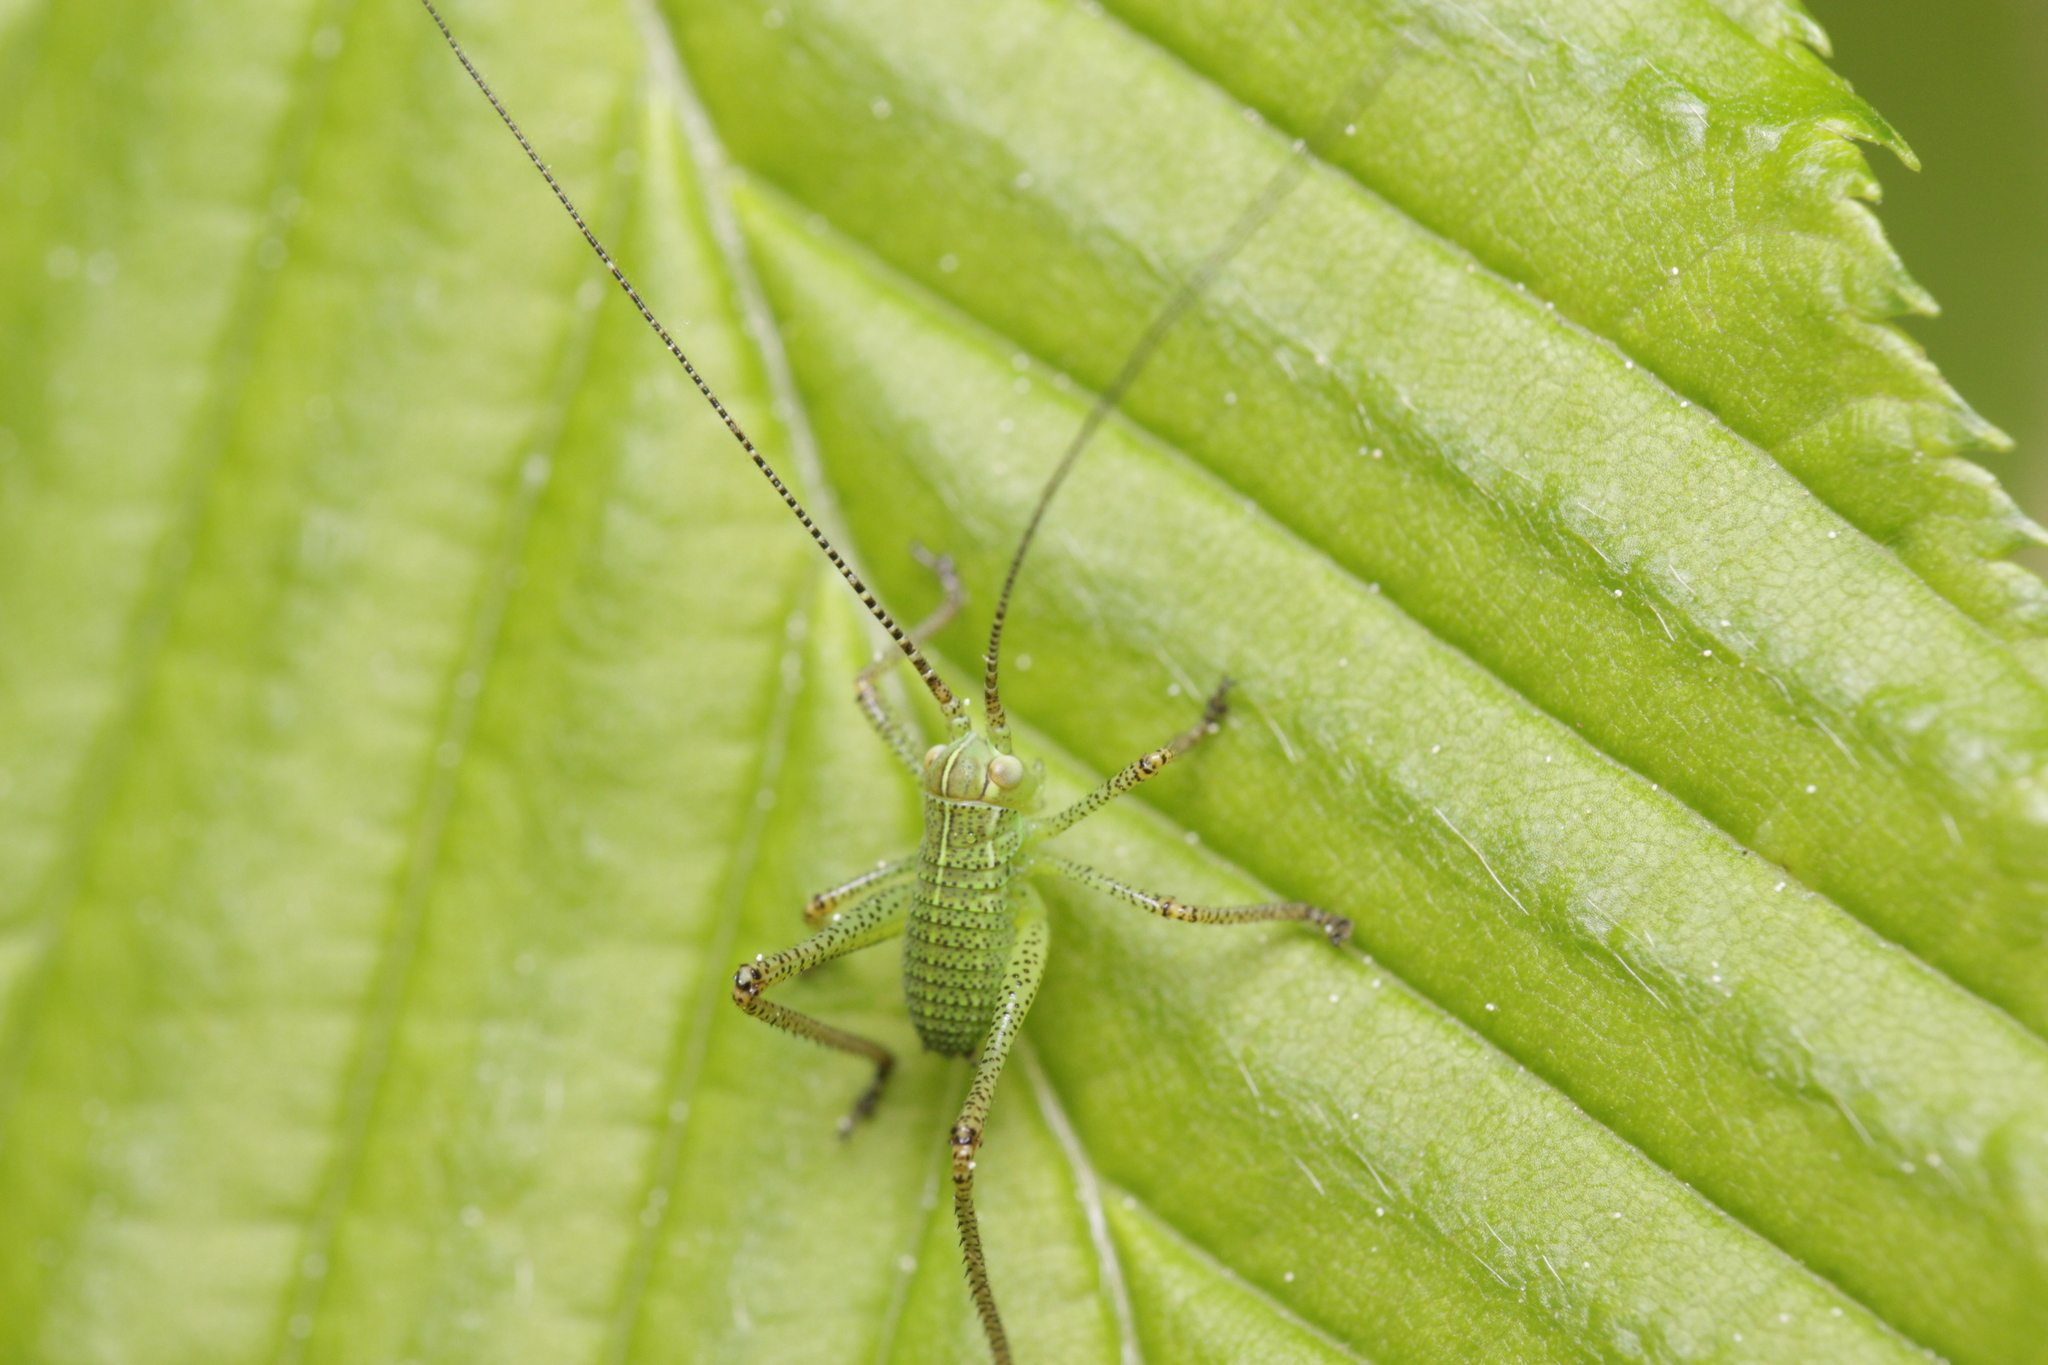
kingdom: Animalia
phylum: Arthropoda
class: Insecta
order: Orthoptera
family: Tettigoniidae
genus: Barbitistes
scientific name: Barbitistes serricauda
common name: Saw-tailed bush-cricket
